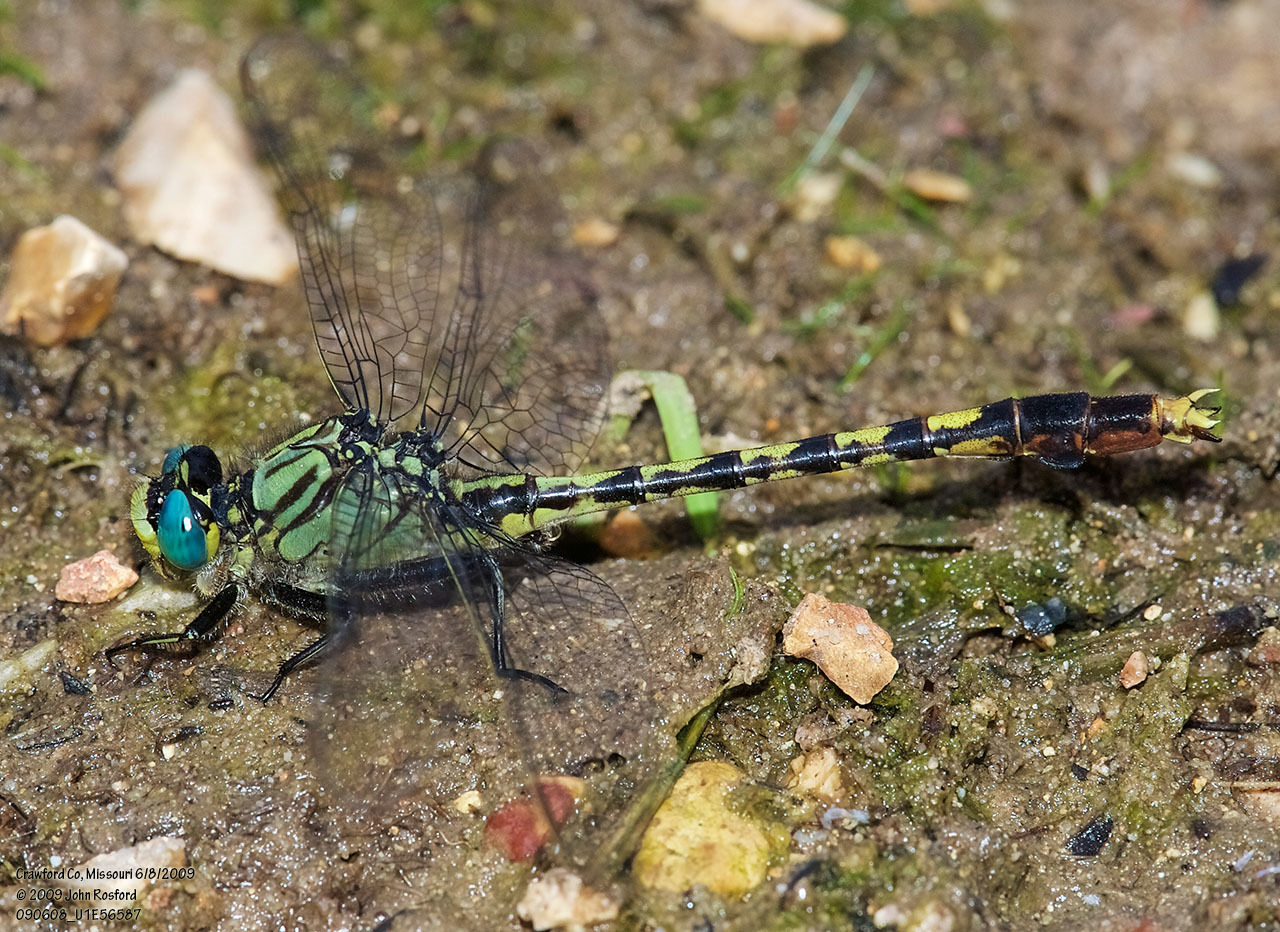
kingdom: Animalia
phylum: Arthropoda
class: Insecta
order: Odonata
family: Gomphidae
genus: Arigomphus
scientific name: Arigomphus villosipes
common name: Unicorn clubtail
